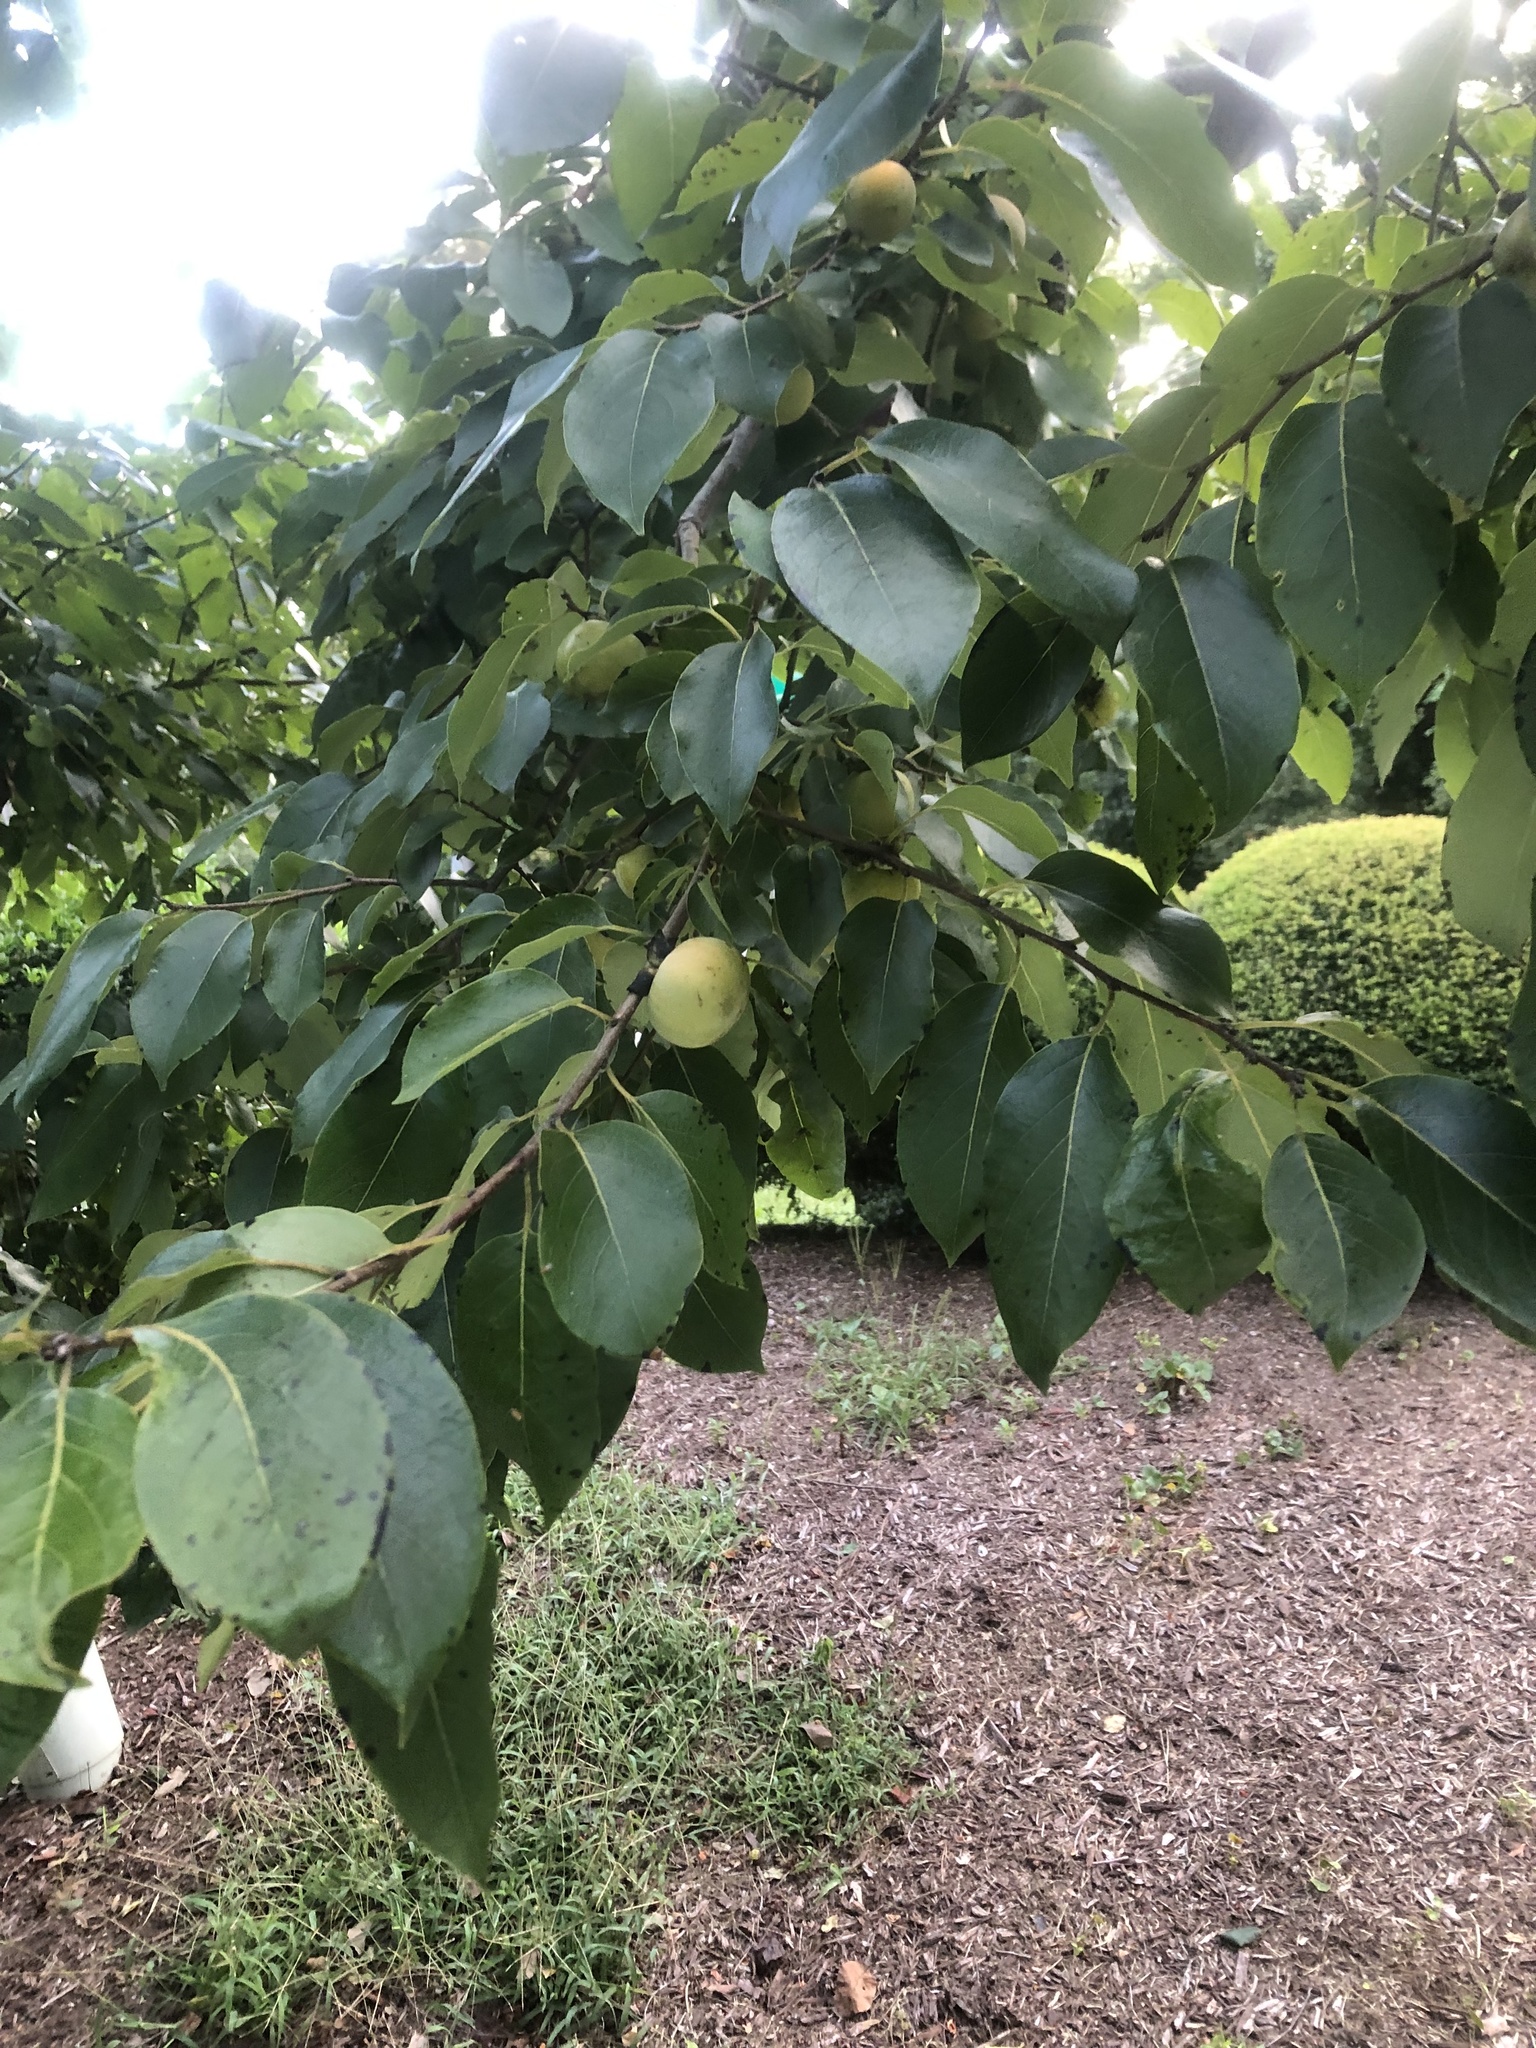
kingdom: Plantae
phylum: Tracheophyta
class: Magnoliopsida
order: Ericales
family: Ebenaceae
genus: Diospyros
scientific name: Diospyros virginiana
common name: Persimmon
